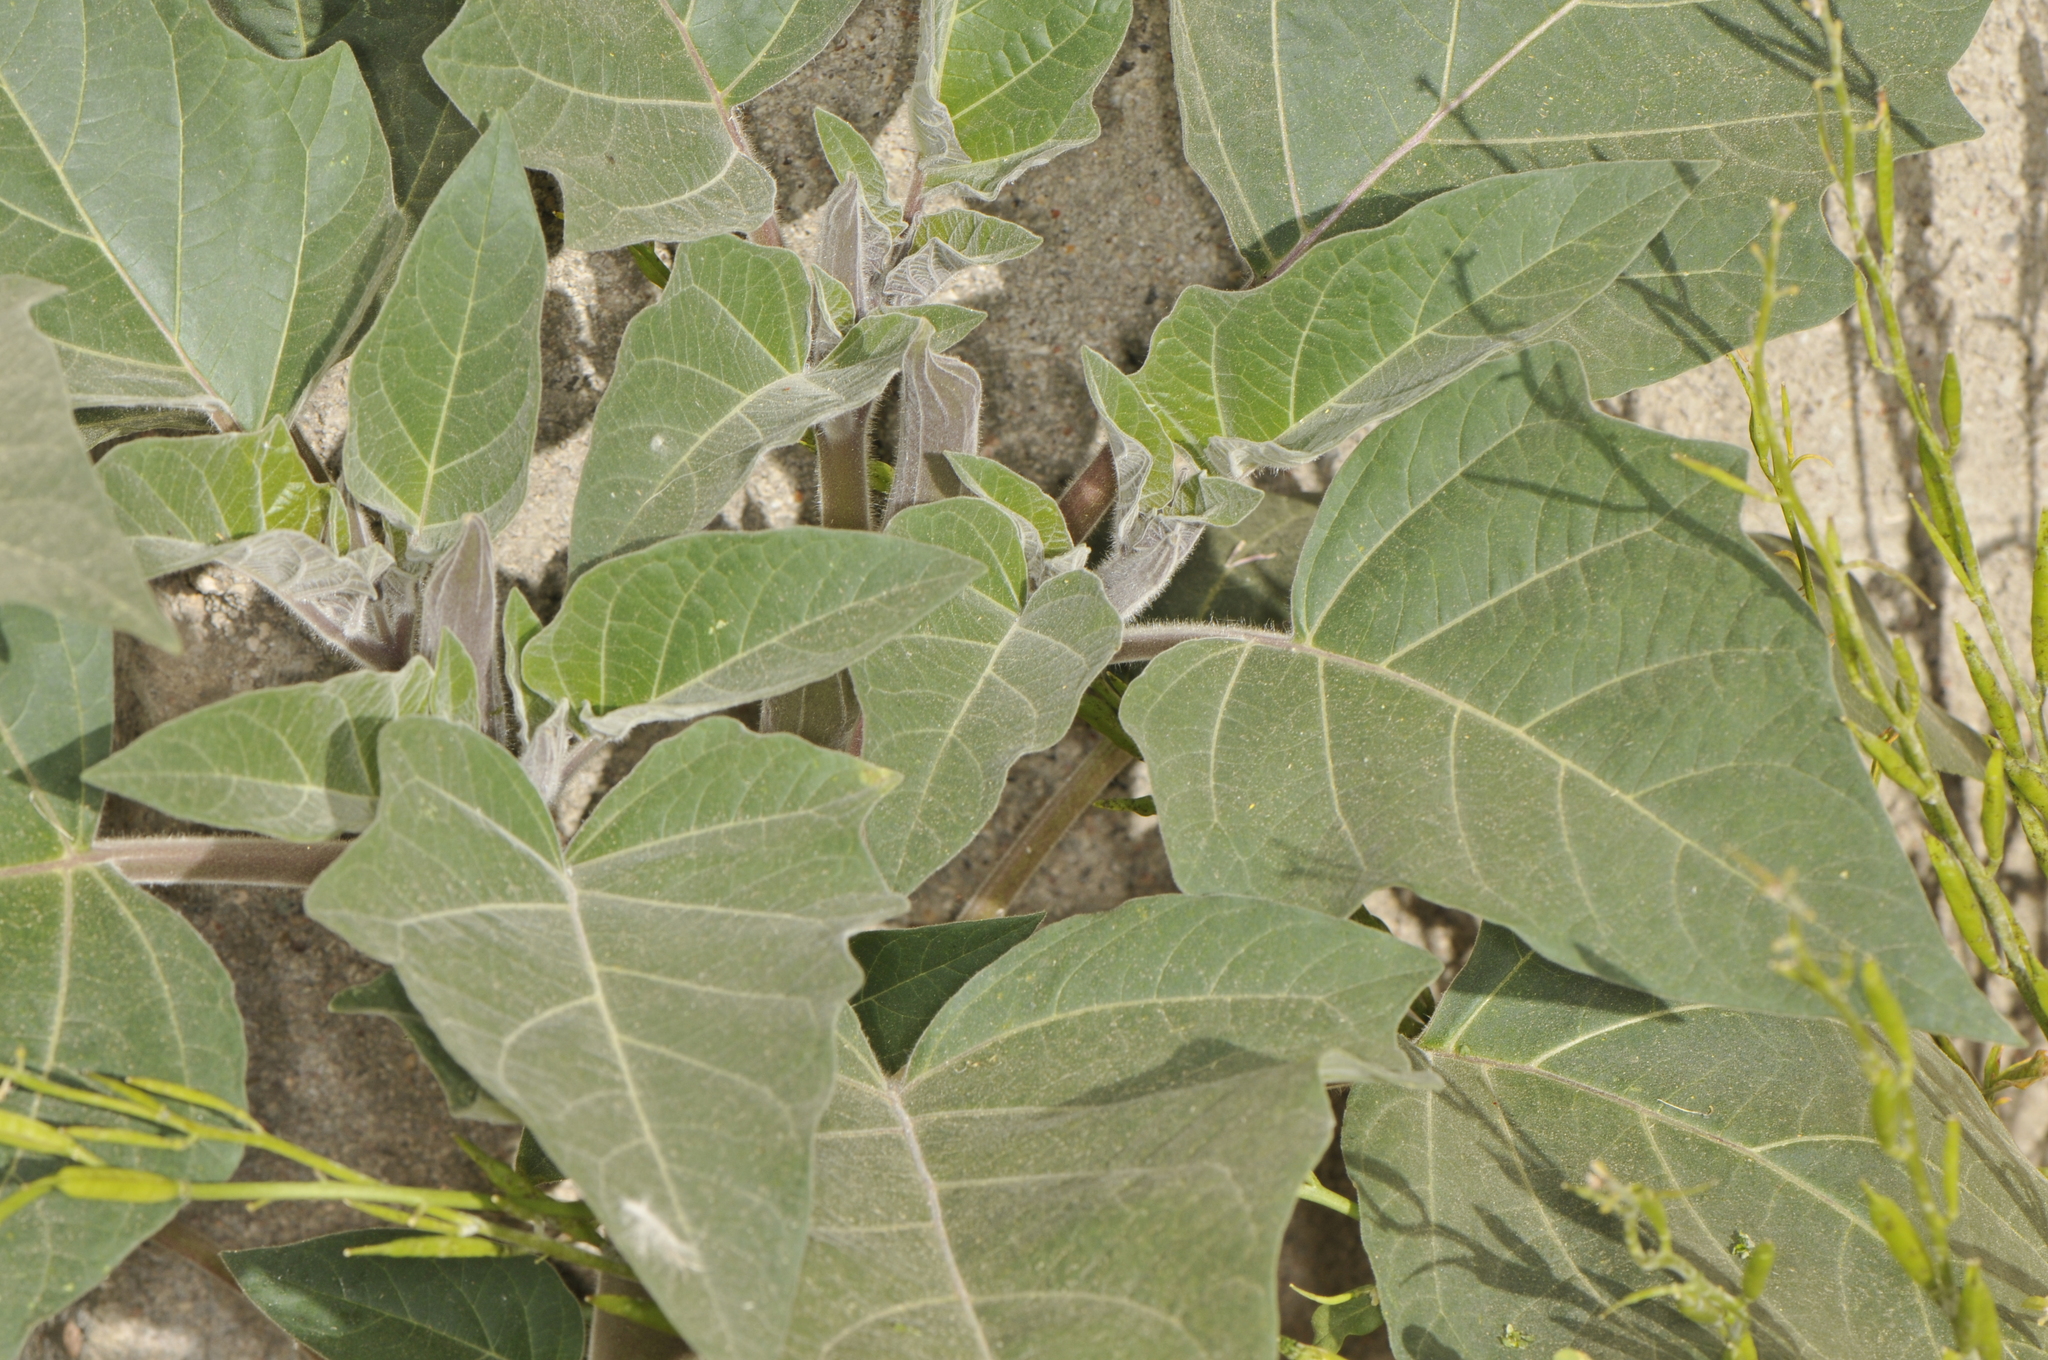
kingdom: Plantae
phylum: Tracheophyta
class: Magnoliopsida
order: Solanales
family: Solanaceae
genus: Datura
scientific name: Datura wrightii
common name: Sacred thorn-apple
